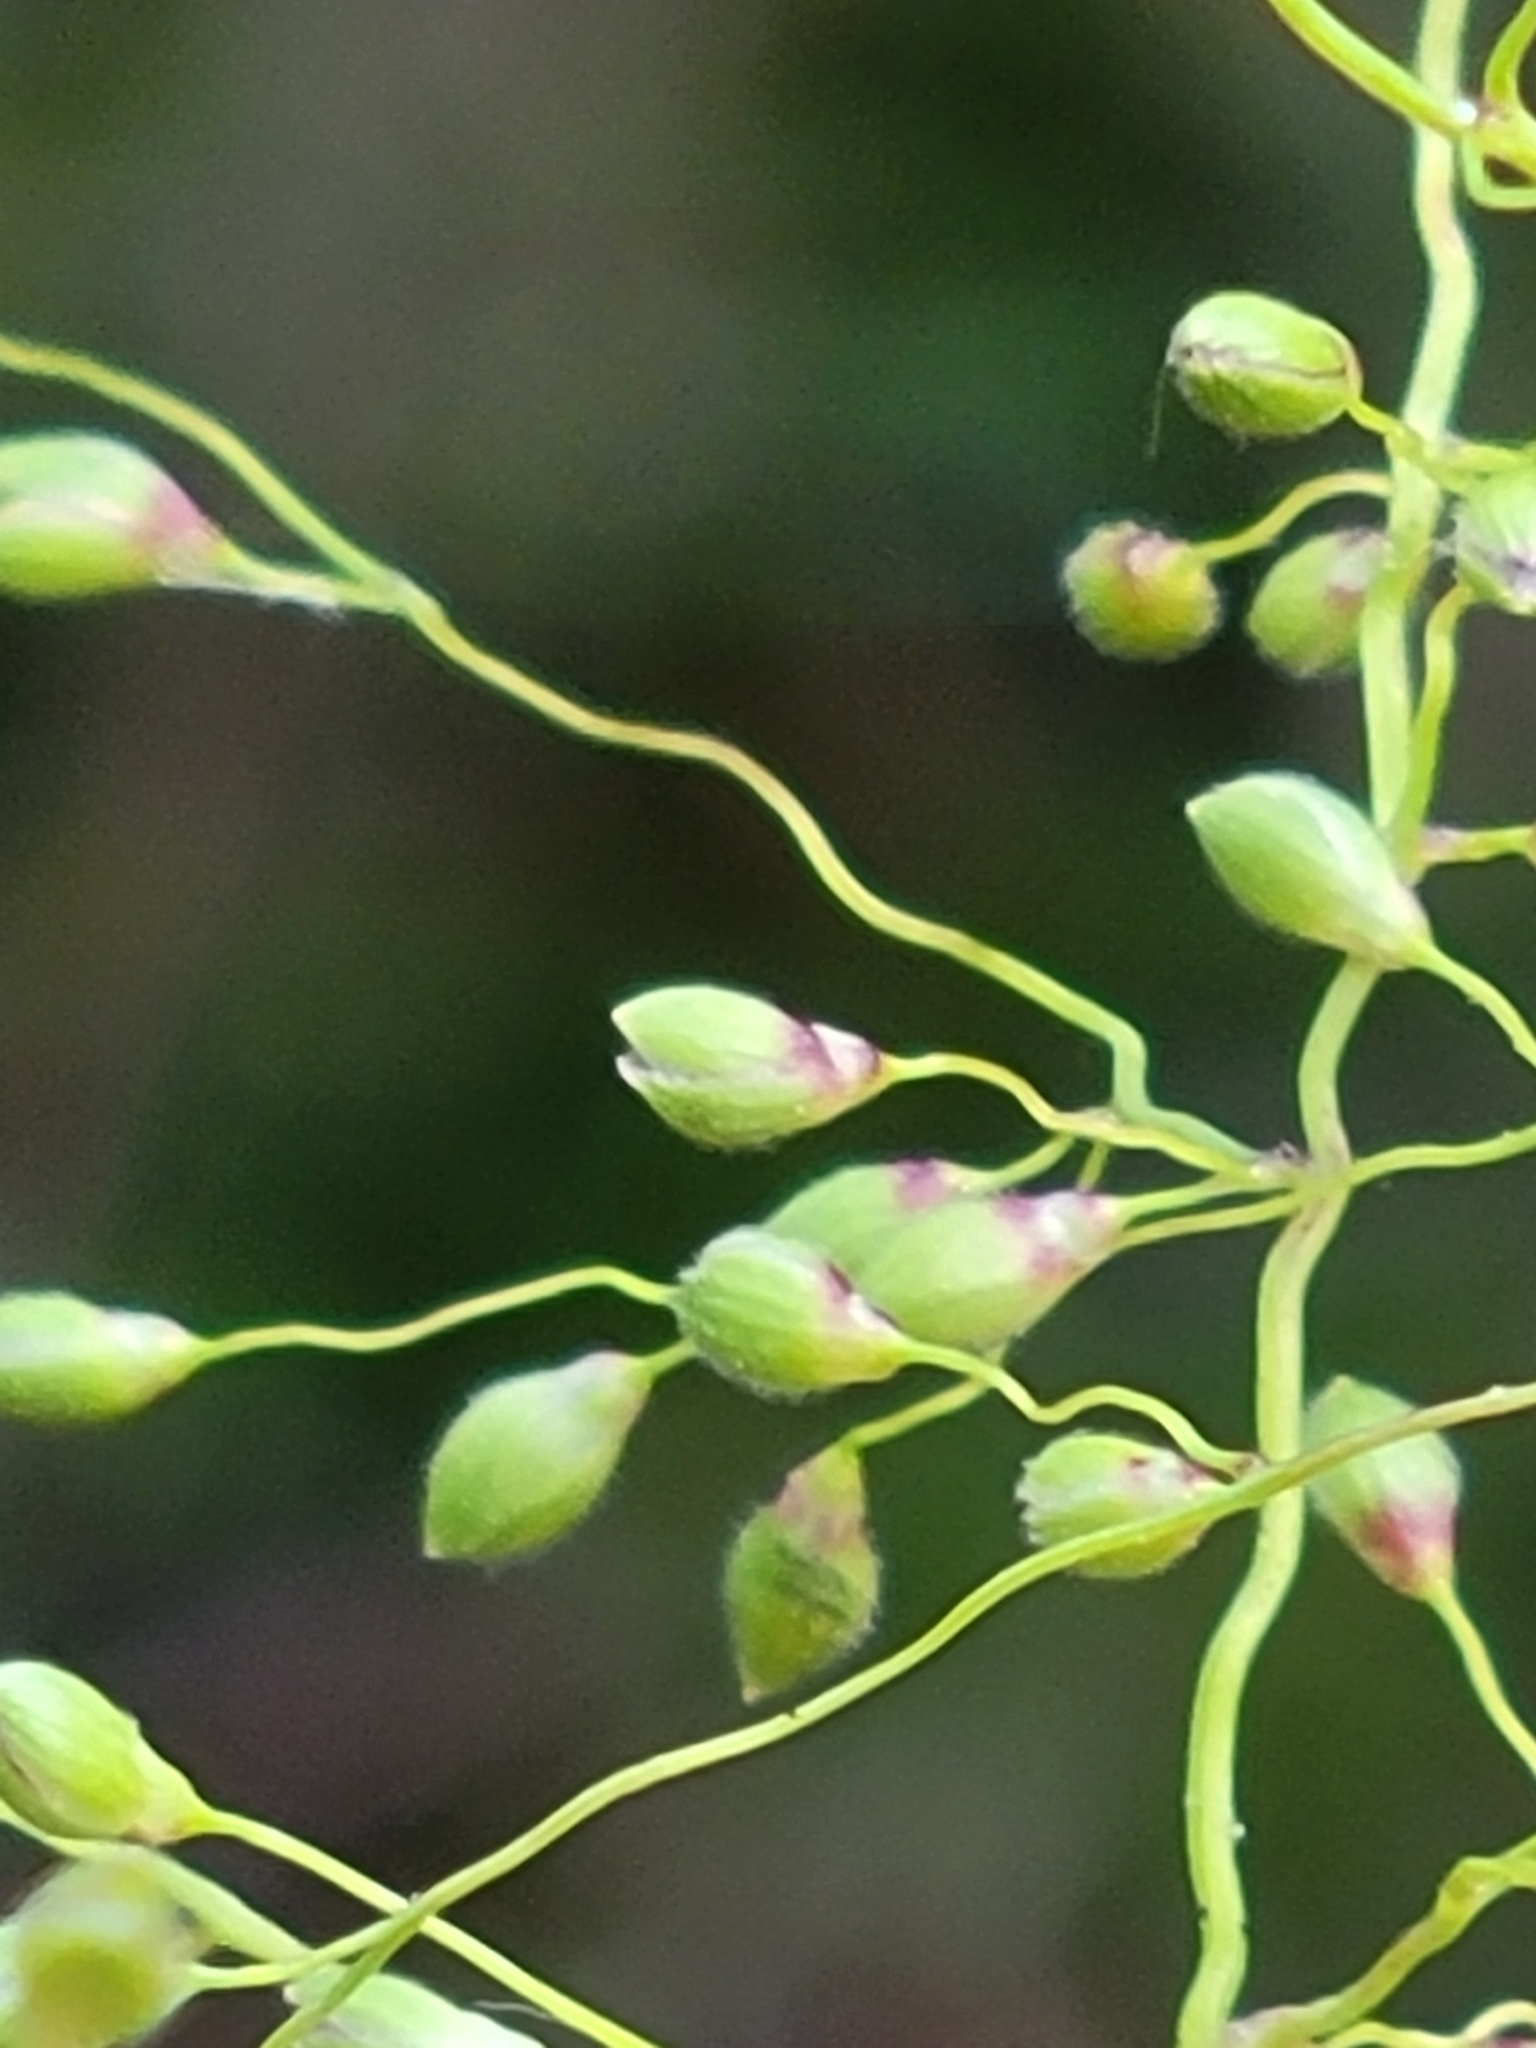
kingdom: Plantae
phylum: Tracheophyta
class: Liliopsida
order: Poales
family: Poaceae
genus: Dichanthelium
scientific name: Dichanthelium dichotomum
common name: Cypress panicgrass
